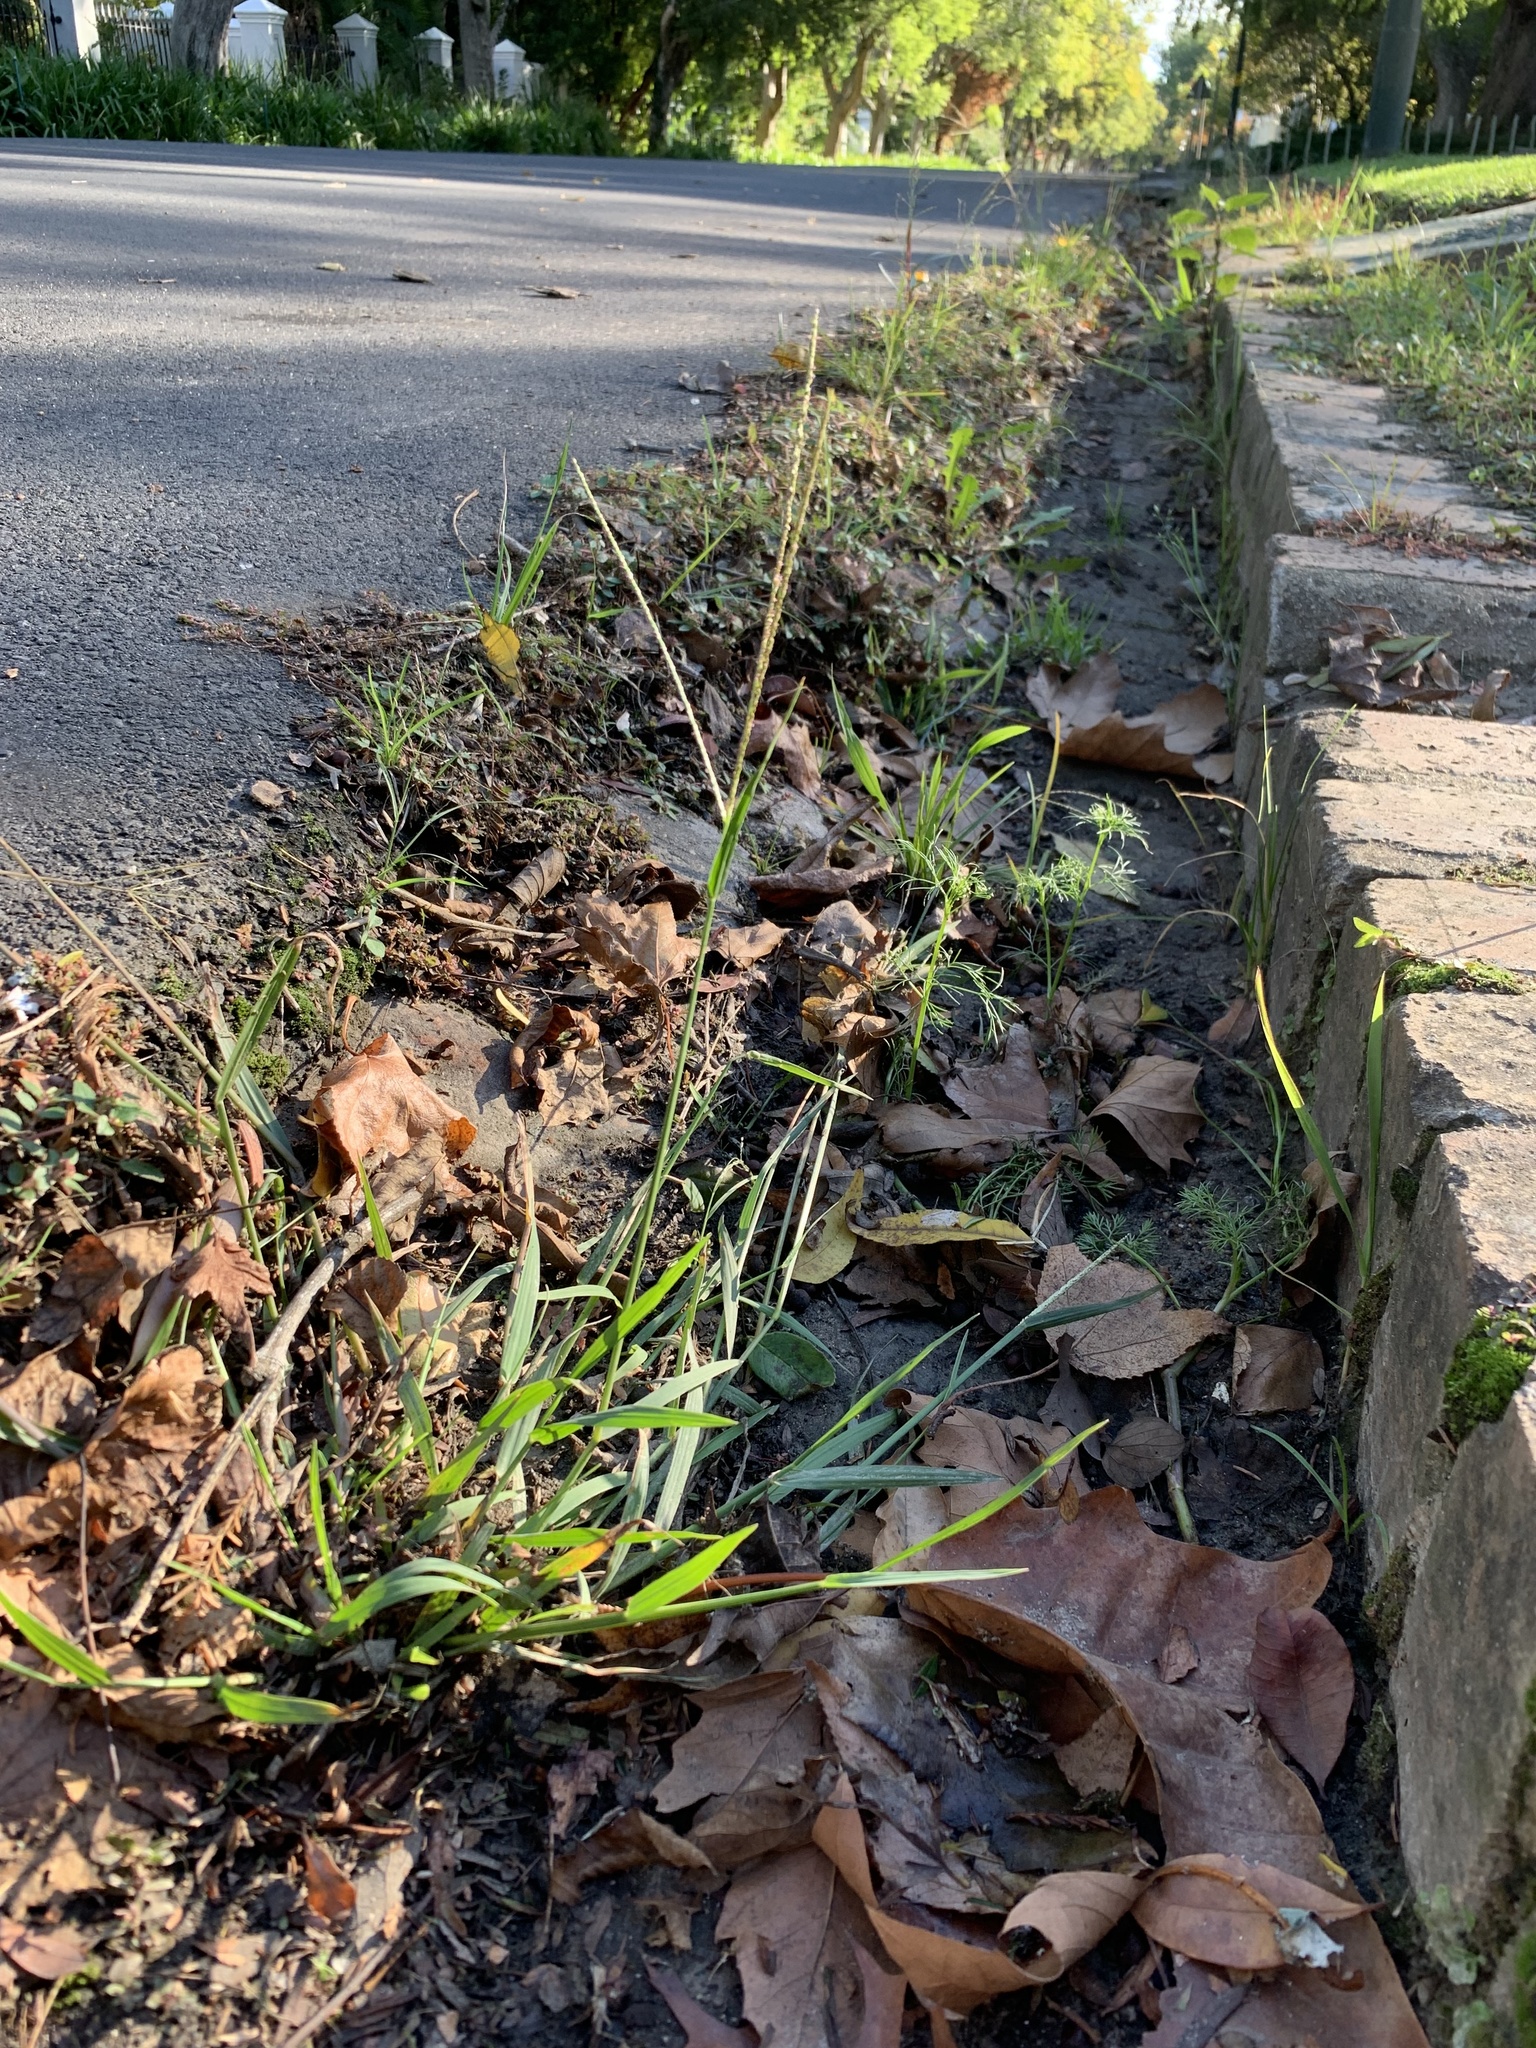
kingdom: Plantae
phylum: Tracheophyta
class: Liliopsida
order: Poales
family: Poaceae
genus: Paspalum
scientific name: Paspalum dilatatum
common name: Dallisgrass
